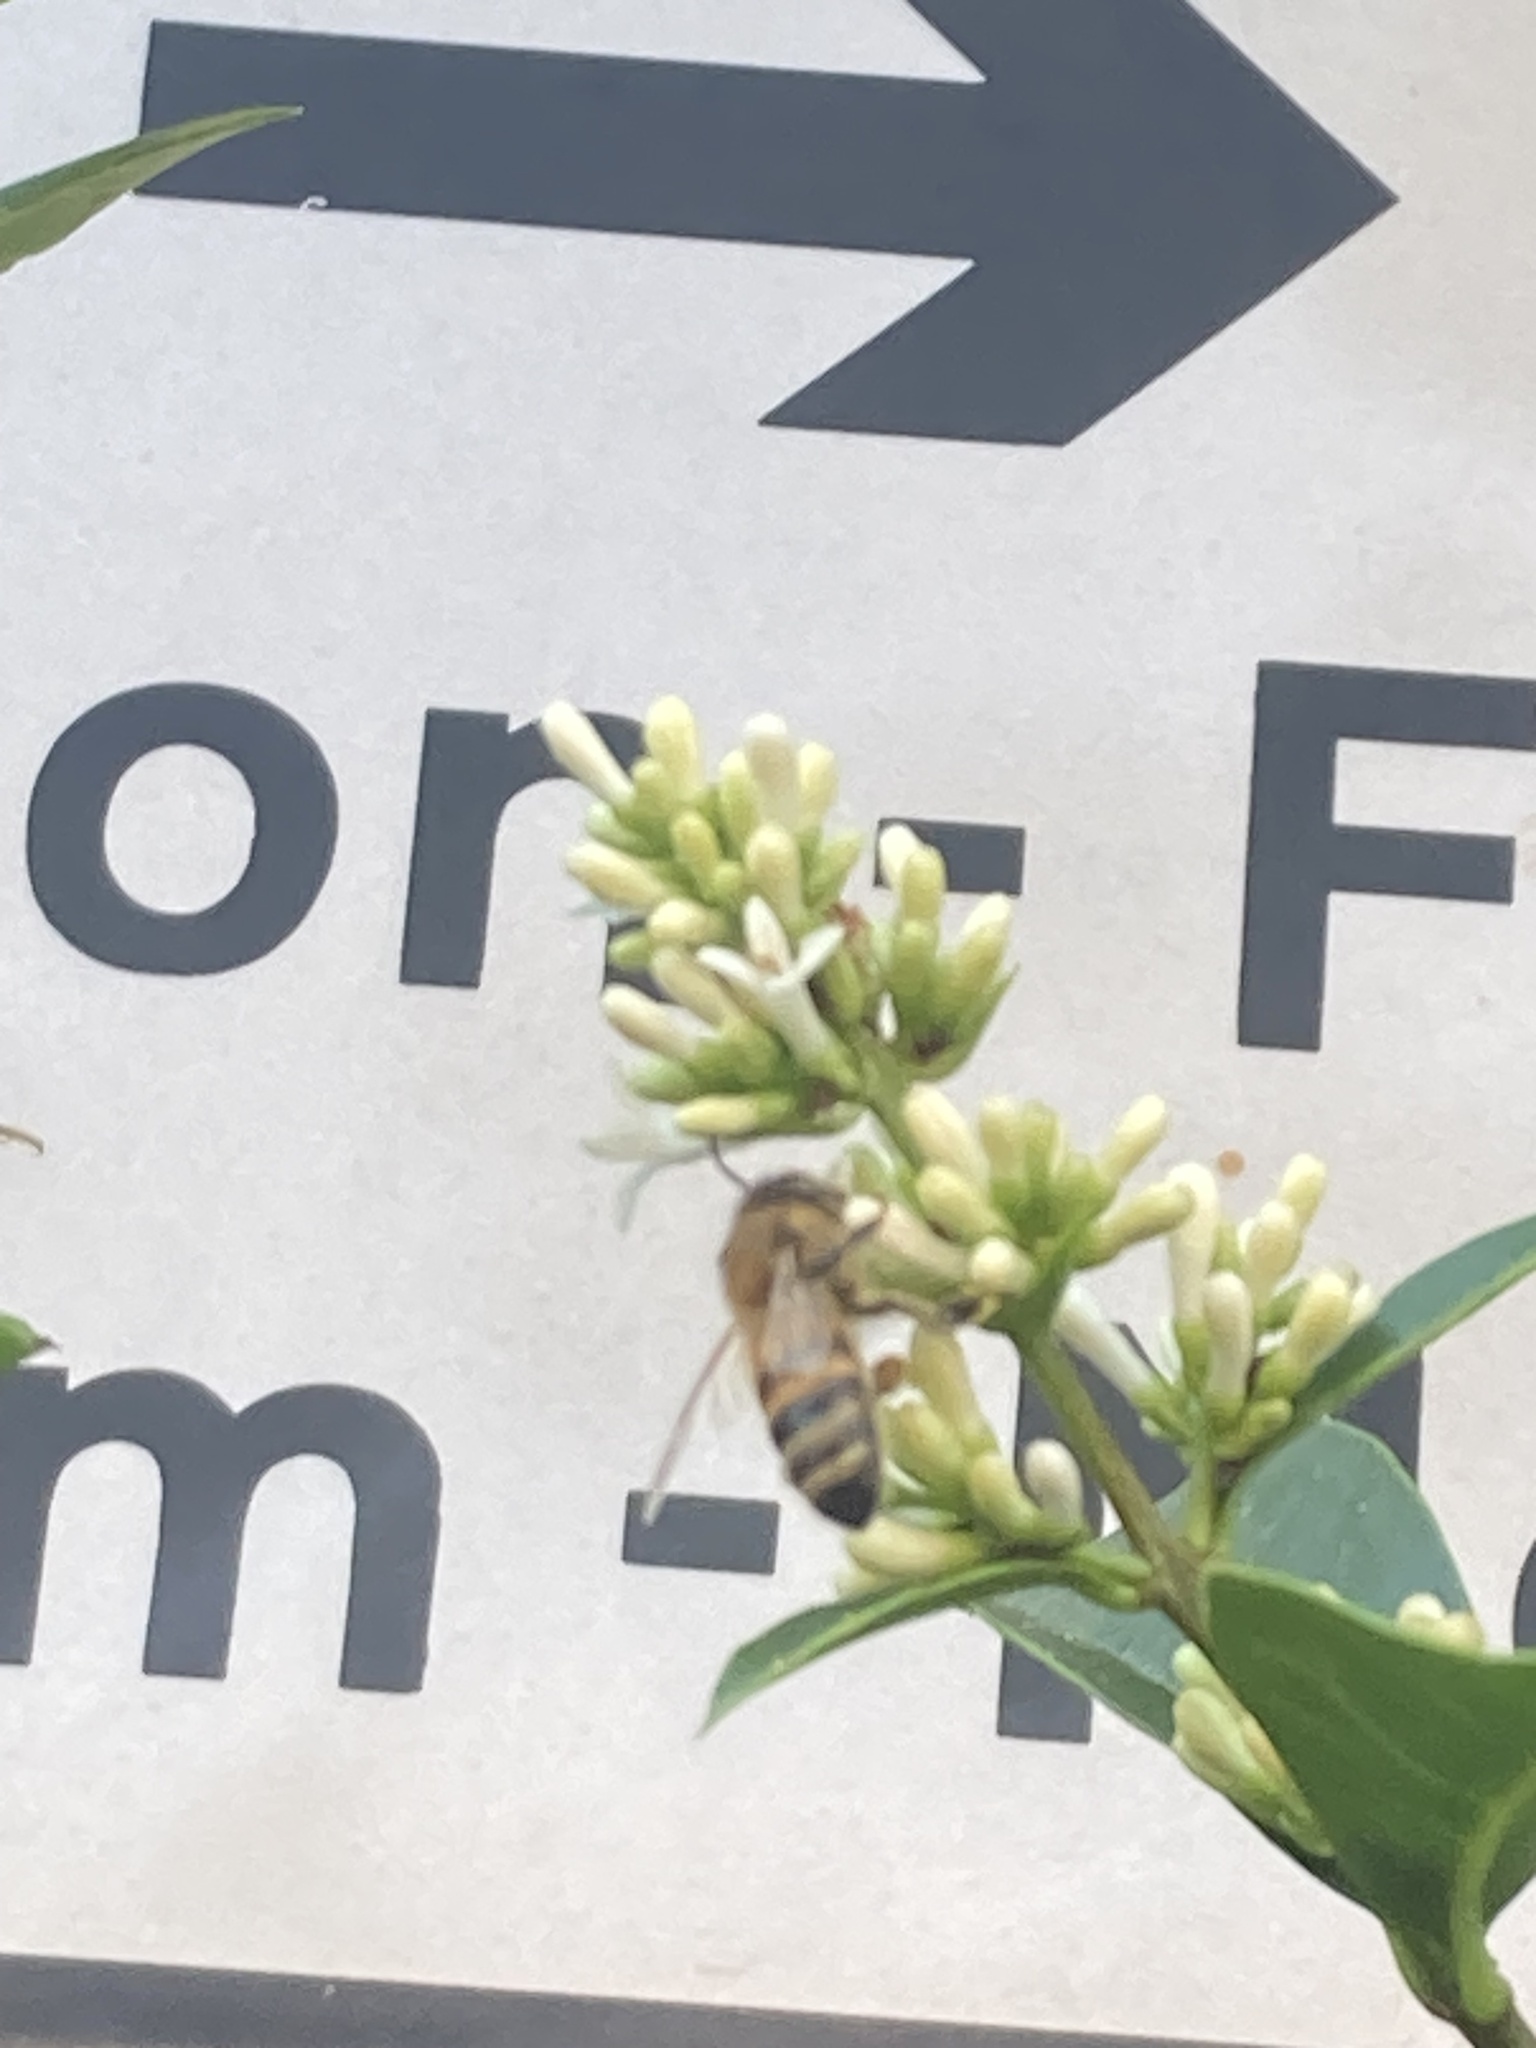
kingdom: Animalia
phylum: Arthropoda
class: Insecta
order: Hymenoptera
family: Apidae
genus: Apis
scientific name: Apis mellifera
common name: Honey bee
